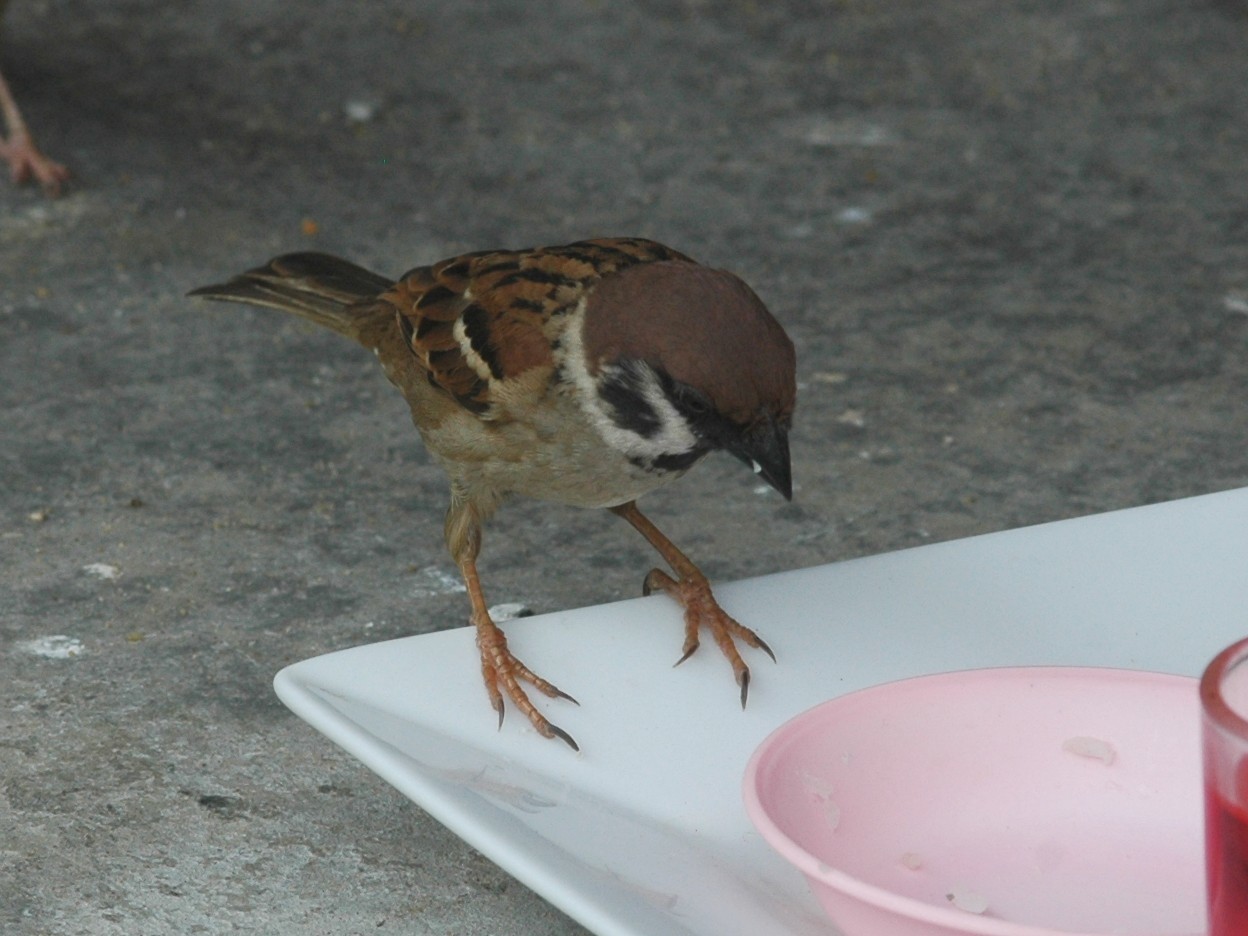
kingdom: Animalia
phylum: Chordata
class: Aves
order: Passeriformes
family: Passeridae
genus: Passer
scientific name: Passer montanus
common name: Eurasian tree sparrow
